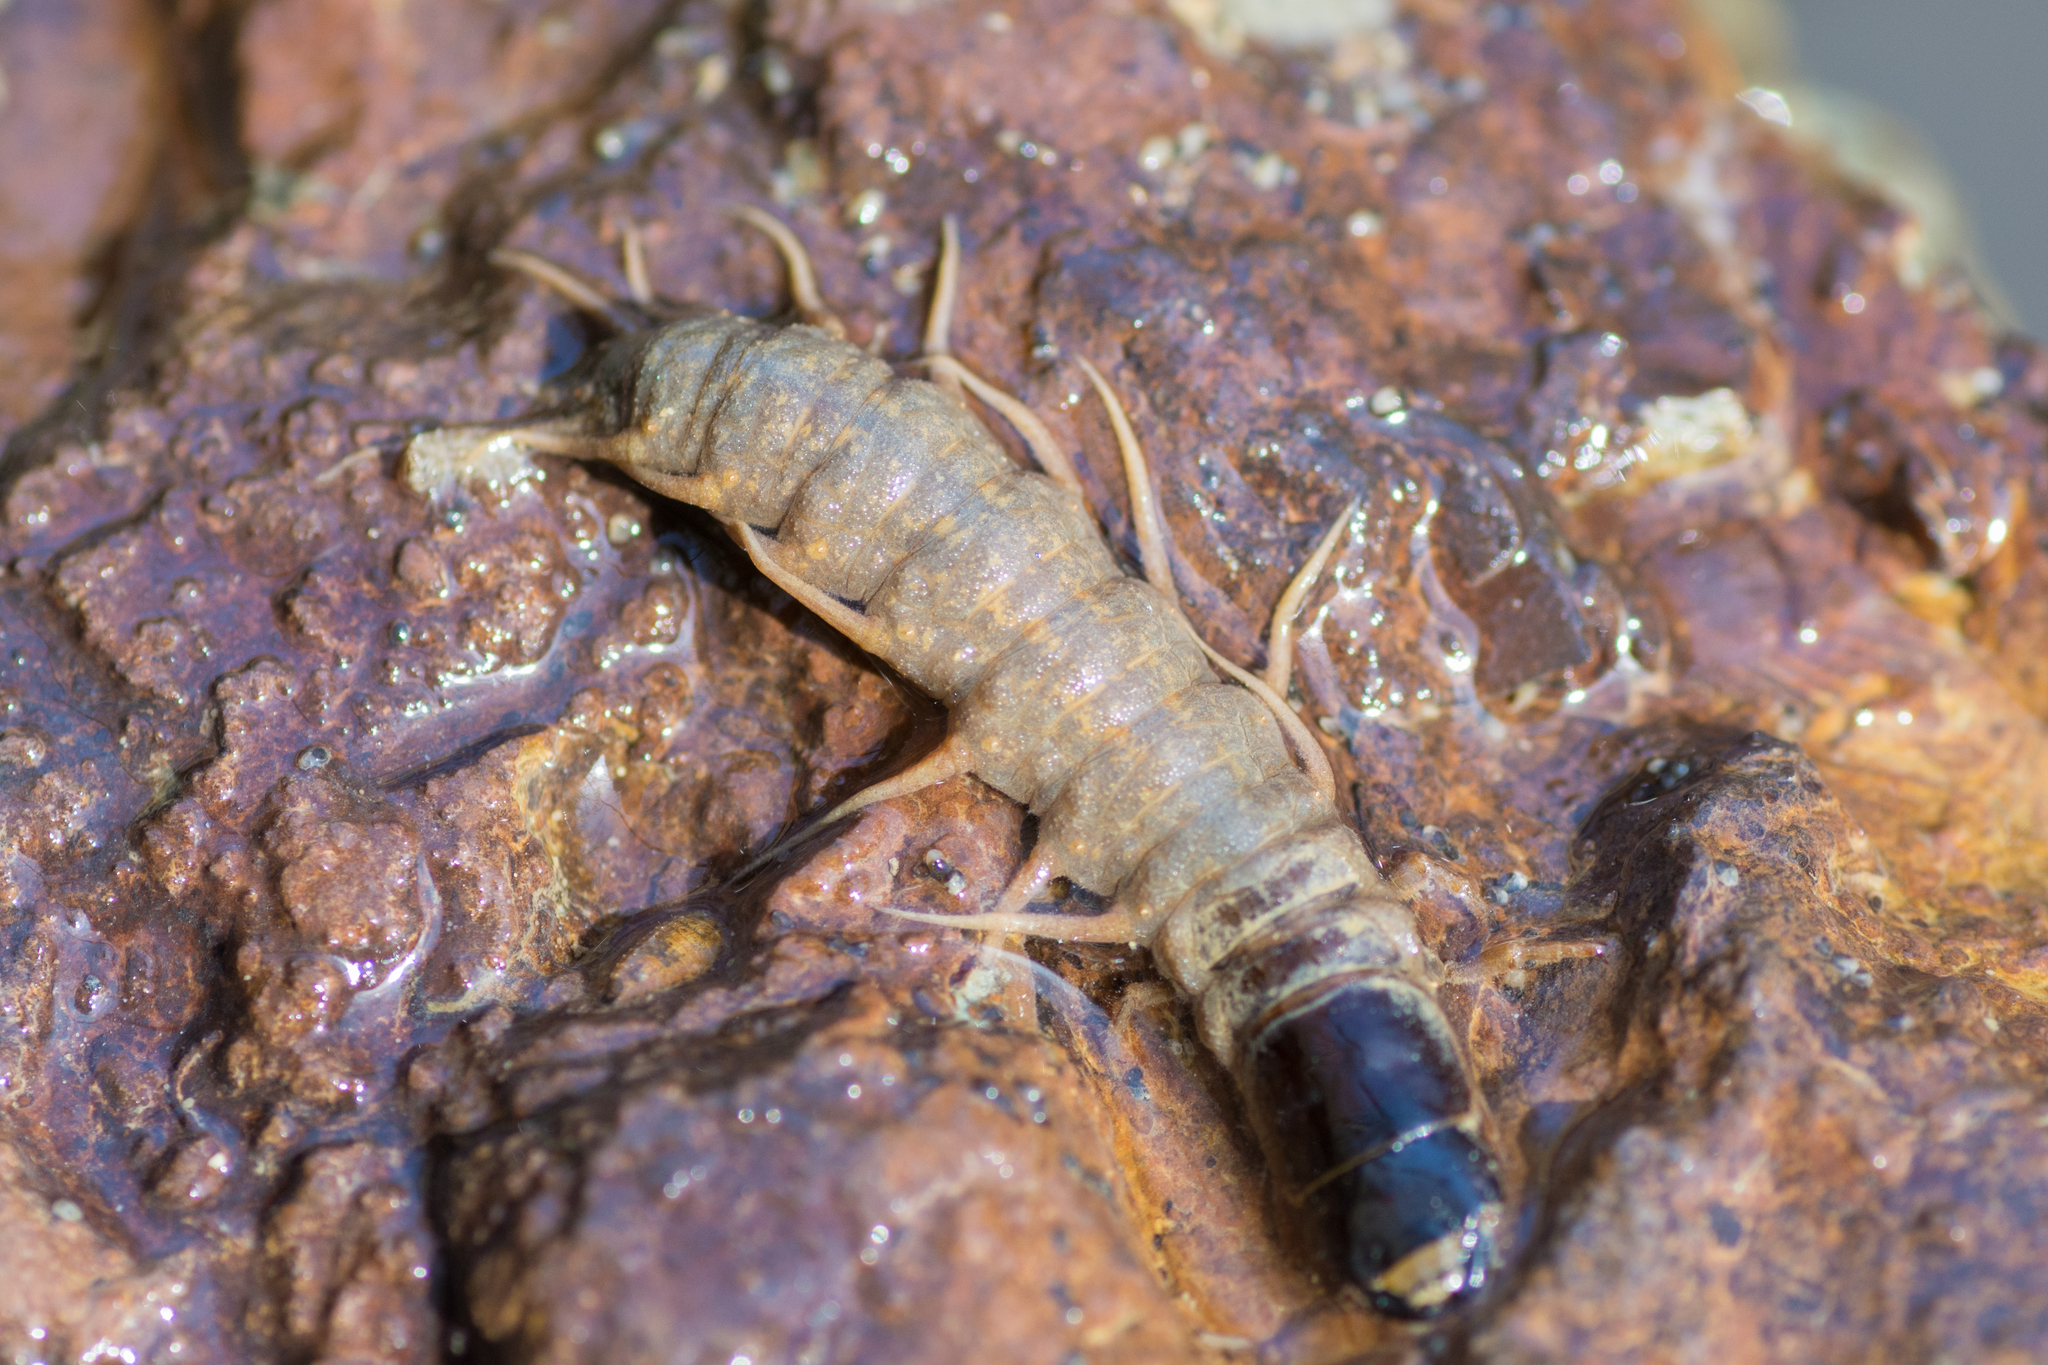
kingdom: Animalia
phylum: Arthropoda
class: Insecta
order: Megaloptera
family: Corydalidae
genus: Nigronia
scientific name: Nigronia serricornis
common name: Serrate dark fishfly
